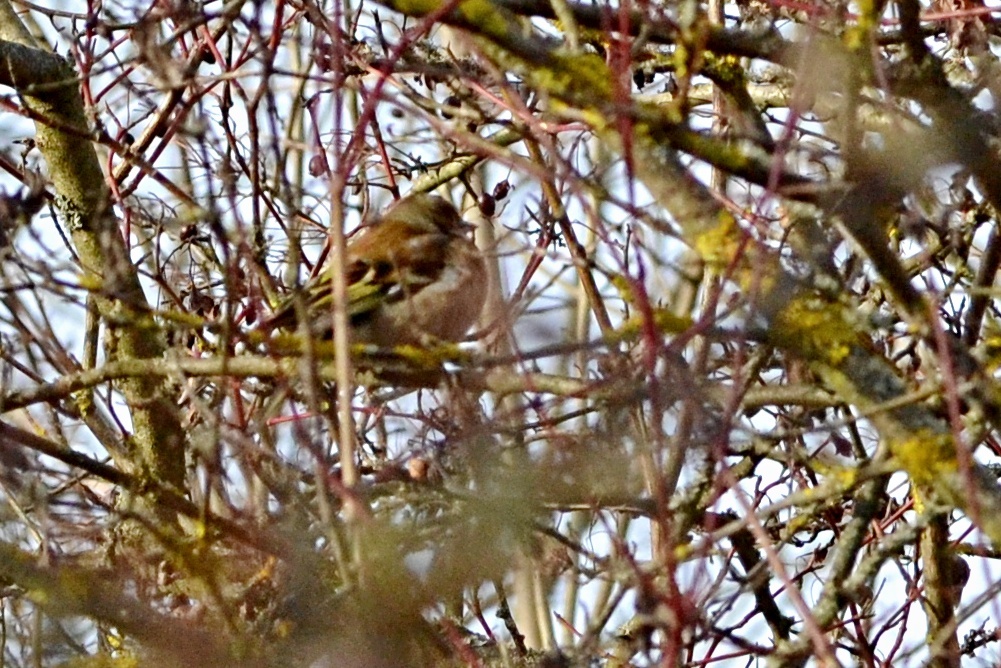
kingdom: Animalia
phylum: Chordata
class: Aves
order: Passeriformes
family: Fringillidae
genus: Fringilla
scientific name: Fringilla coelebs
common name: Common chaffinch
